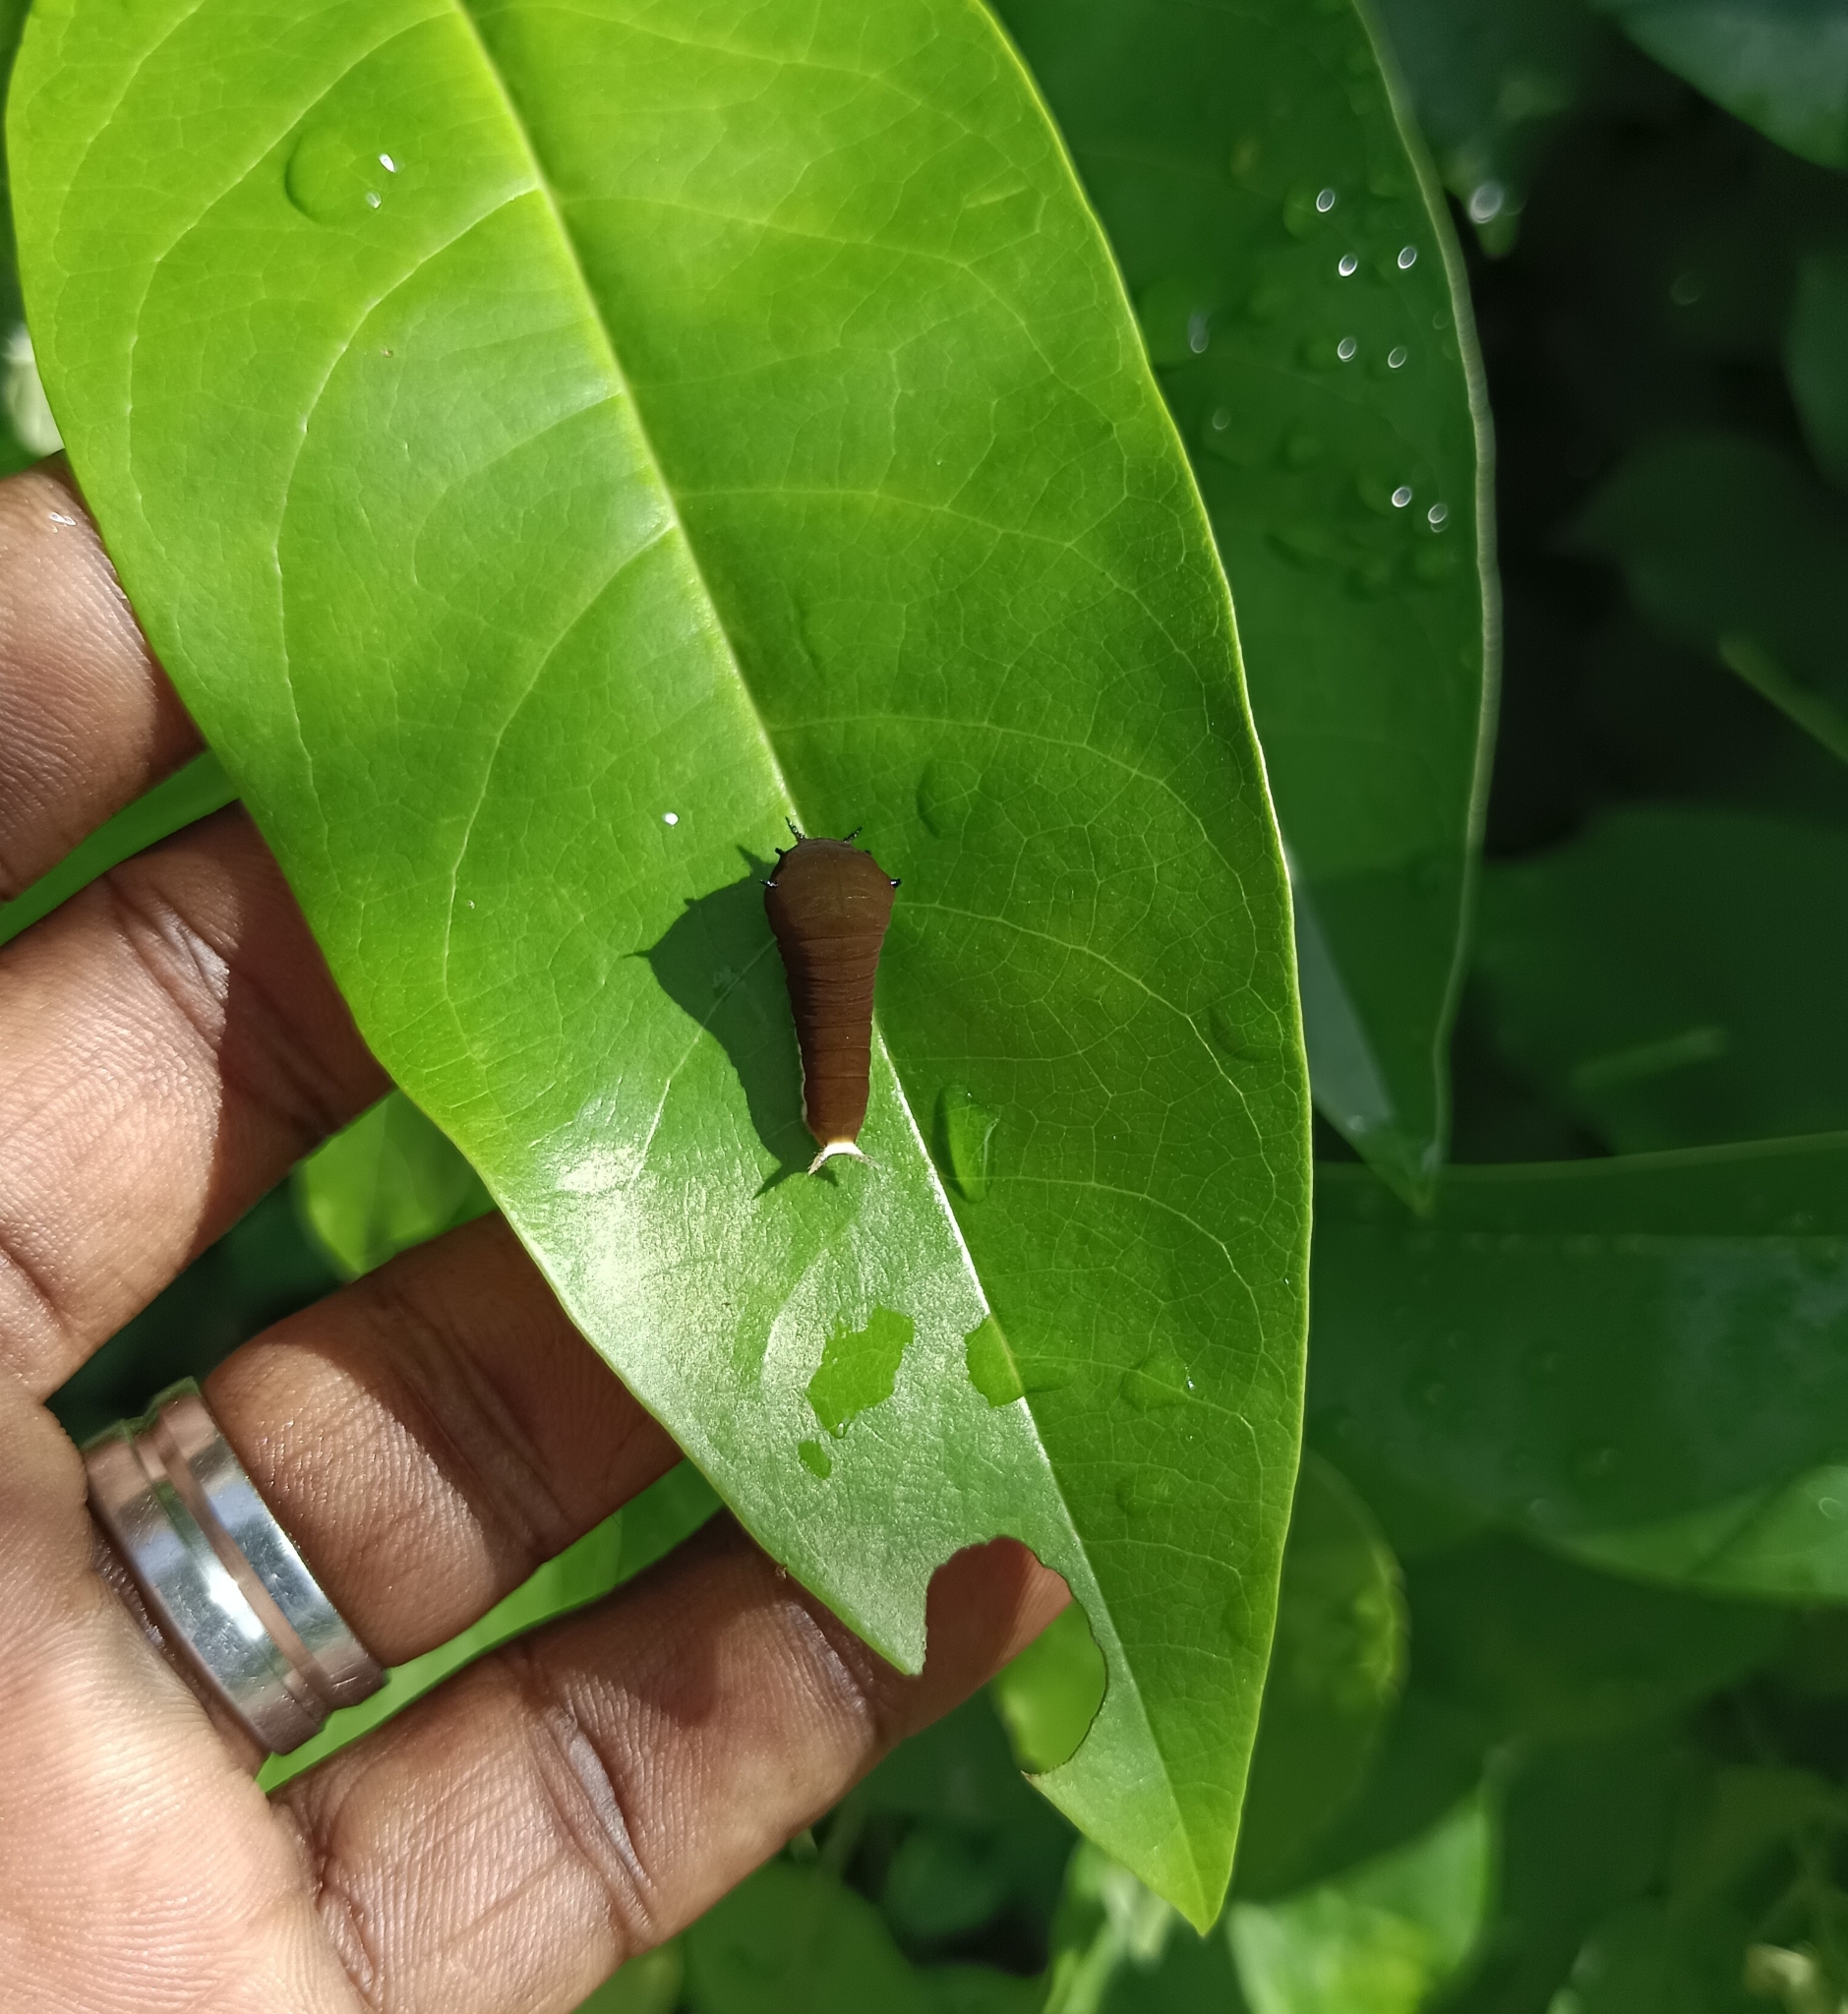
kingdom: Animalia
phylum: Arthropoda
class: Insecta
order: Lepidoptera
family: Papilionidae
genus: Graphium
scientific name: Graphium doson
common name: Common jay
